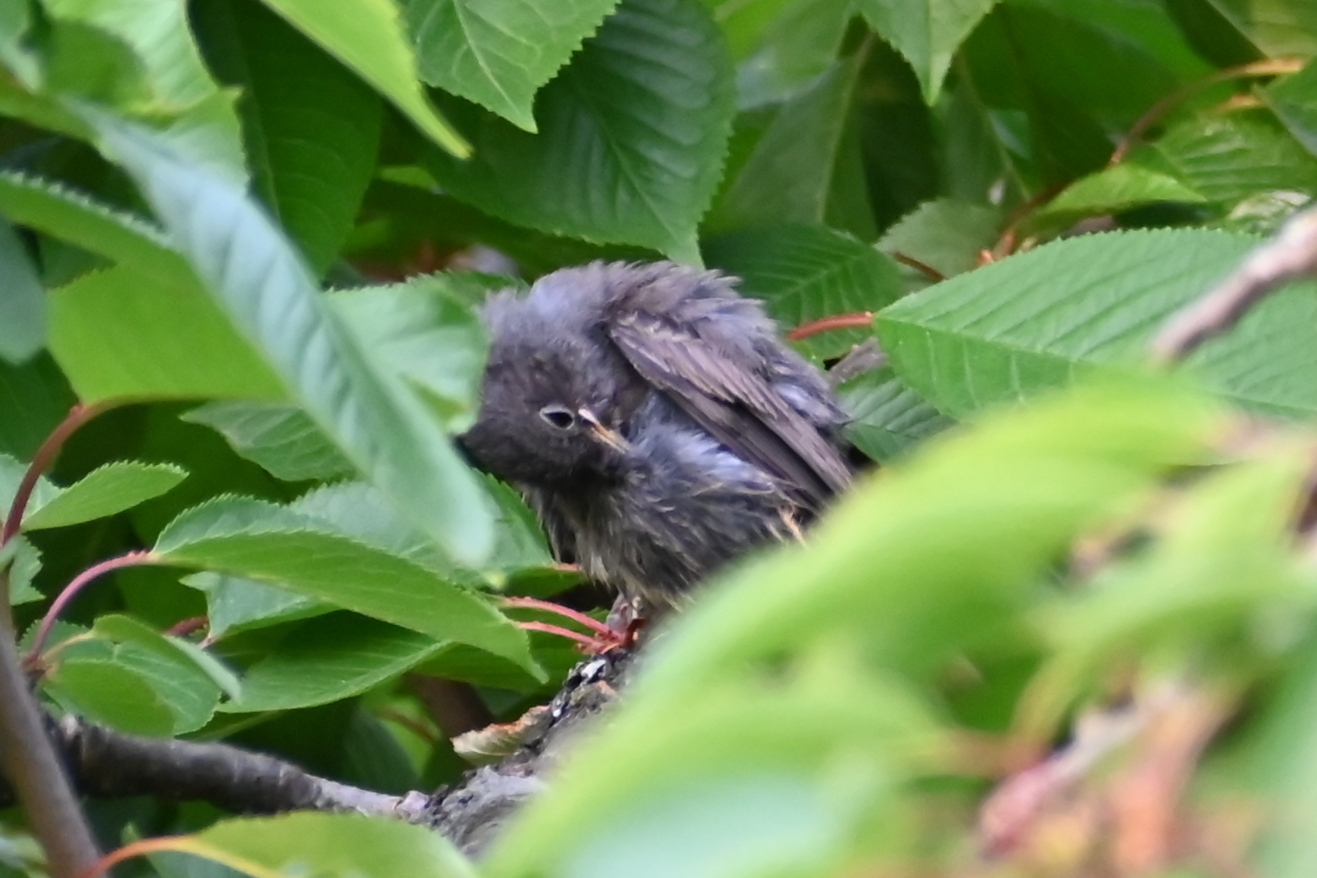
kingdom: Animalia
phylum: Chordata
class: Aves
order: Passeriformes
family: Muscicapidae
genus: Phoenicurus
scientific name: Phoenicurus ochruros
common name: Black redstart
